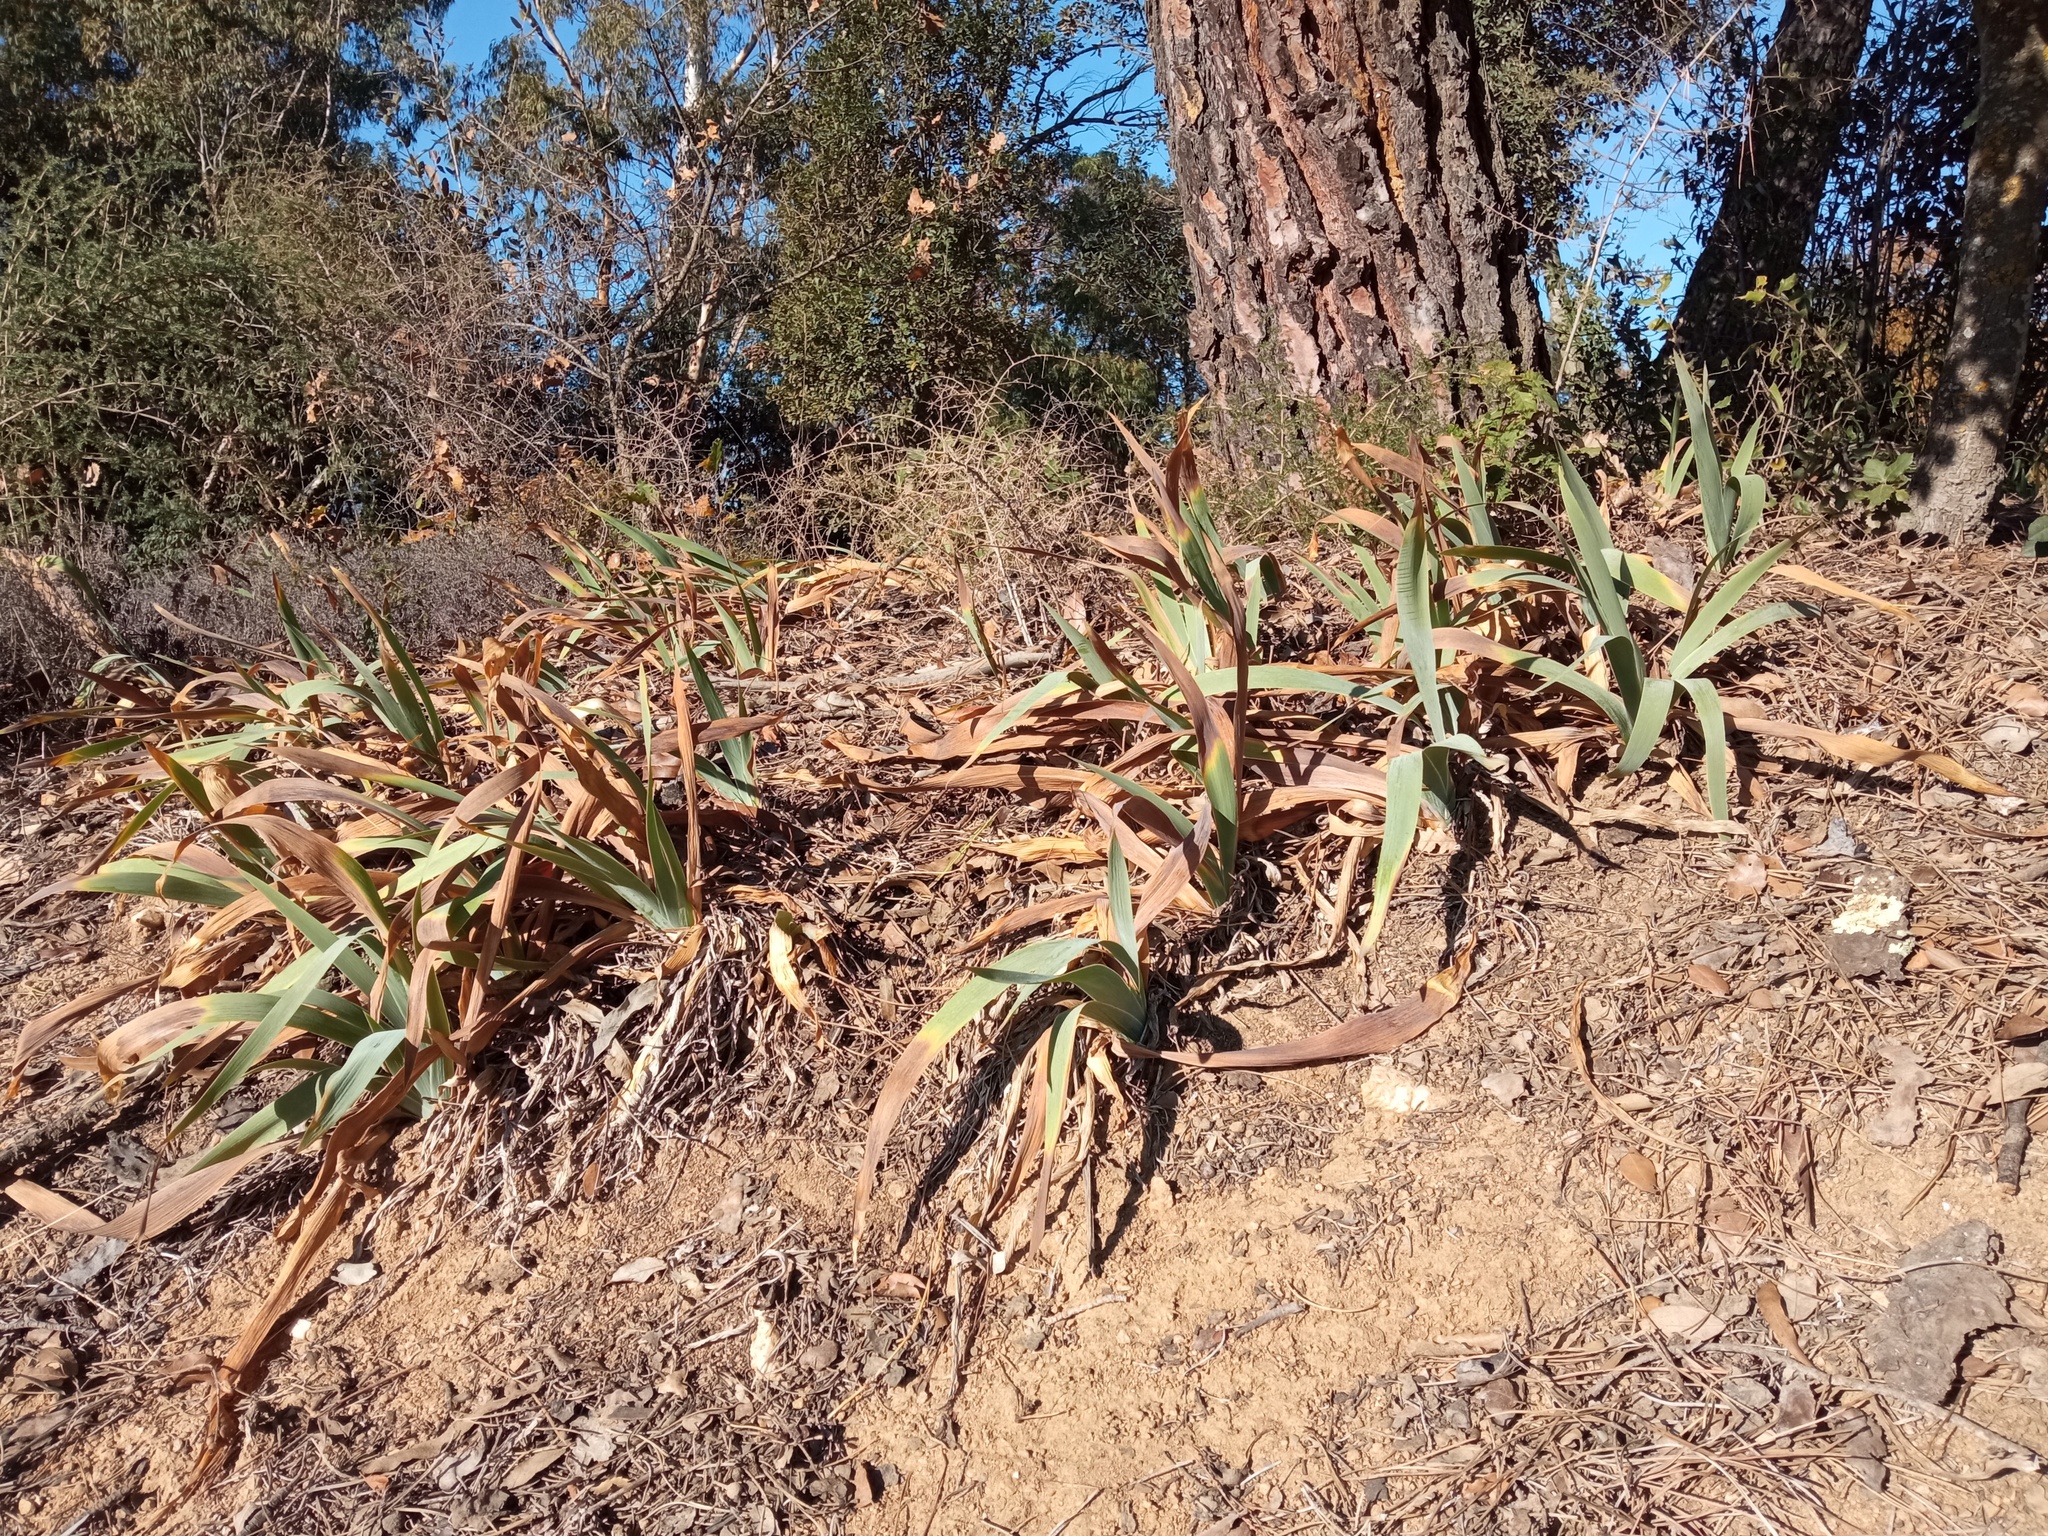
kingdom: Plantae
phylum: Tracheophyta
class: Liliopsida
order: Asparagales
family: Iridaceae
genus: Iris
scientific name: Iris germanica
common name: German iris
